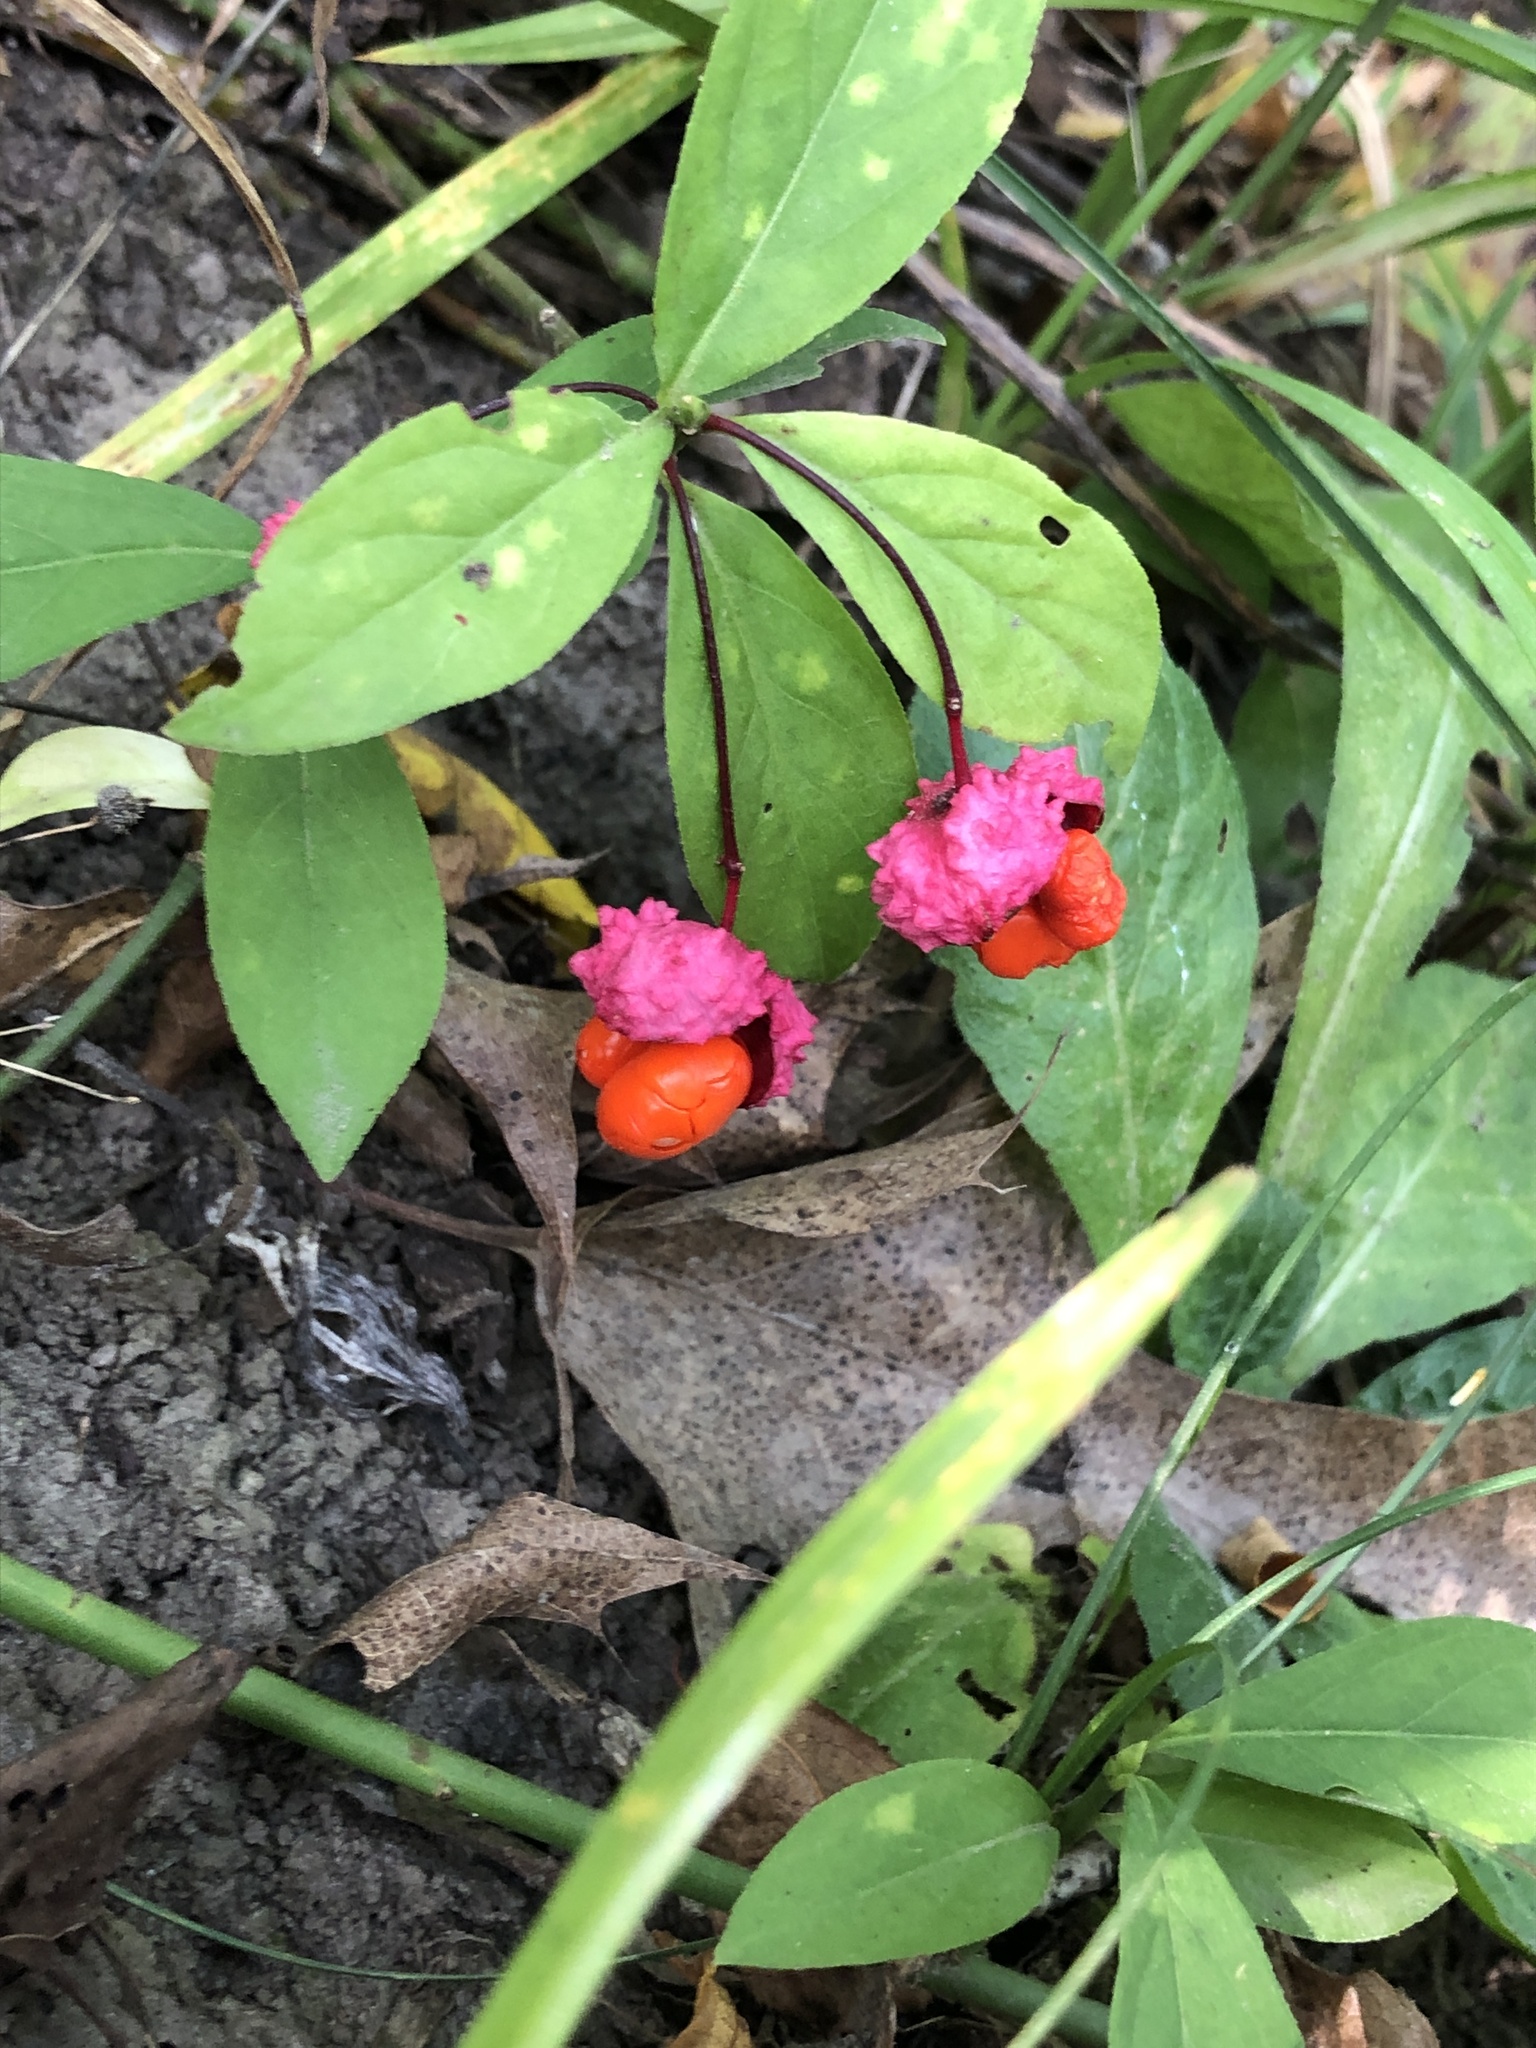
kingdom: Plantae
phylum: Tracheophyta
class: Magnoliopsida
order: Celastrales
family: Celastraceae
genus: Euonymus
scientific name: Euonymus obovatus
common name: Running strawberry-bush
